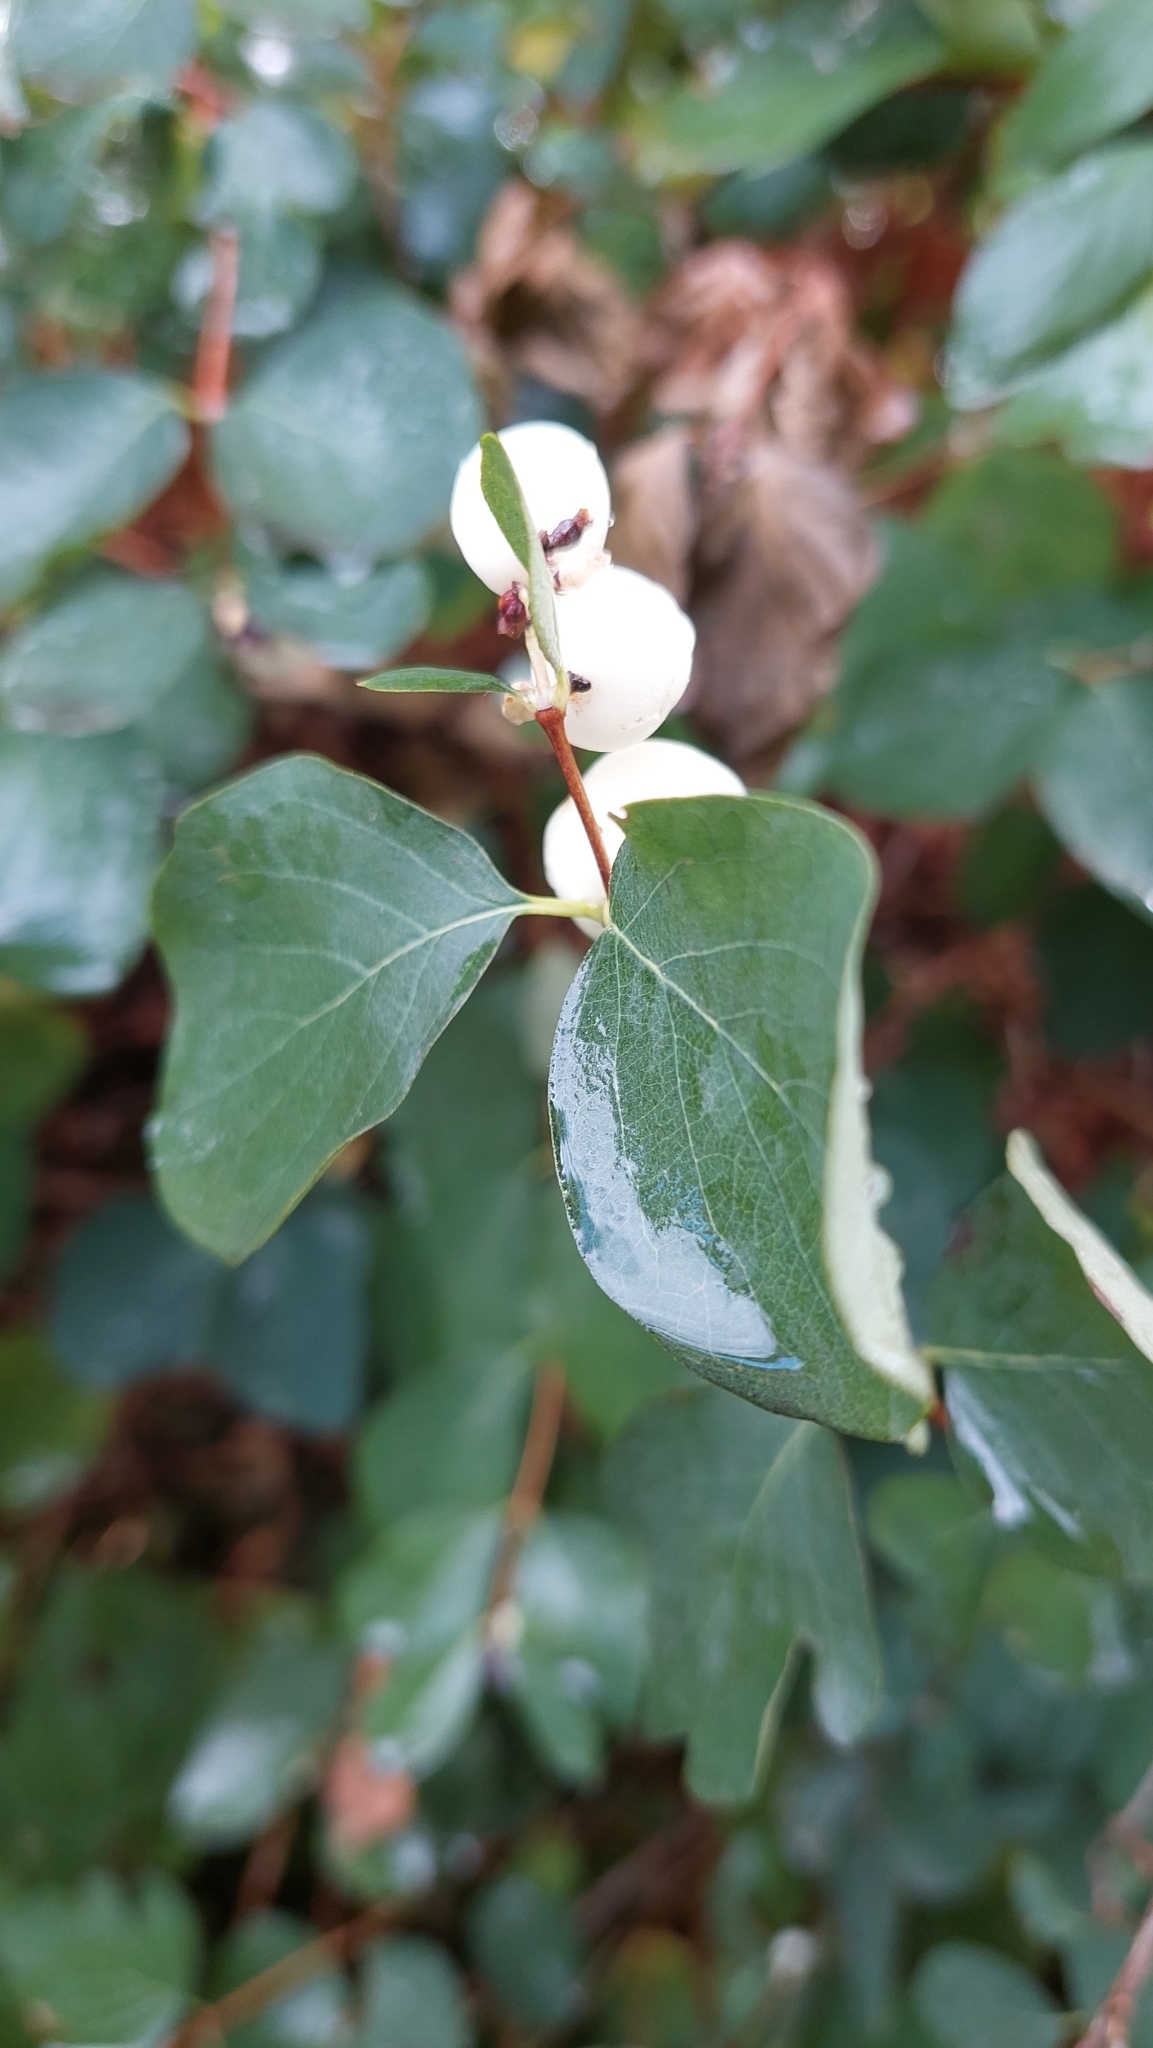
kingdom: Plantae
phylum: Tracheophyta
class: Magnoliopsida
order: Dipsacales
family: Caprifoliaceae
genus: Symphoricarpos
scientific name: Symphoricarpos albus
